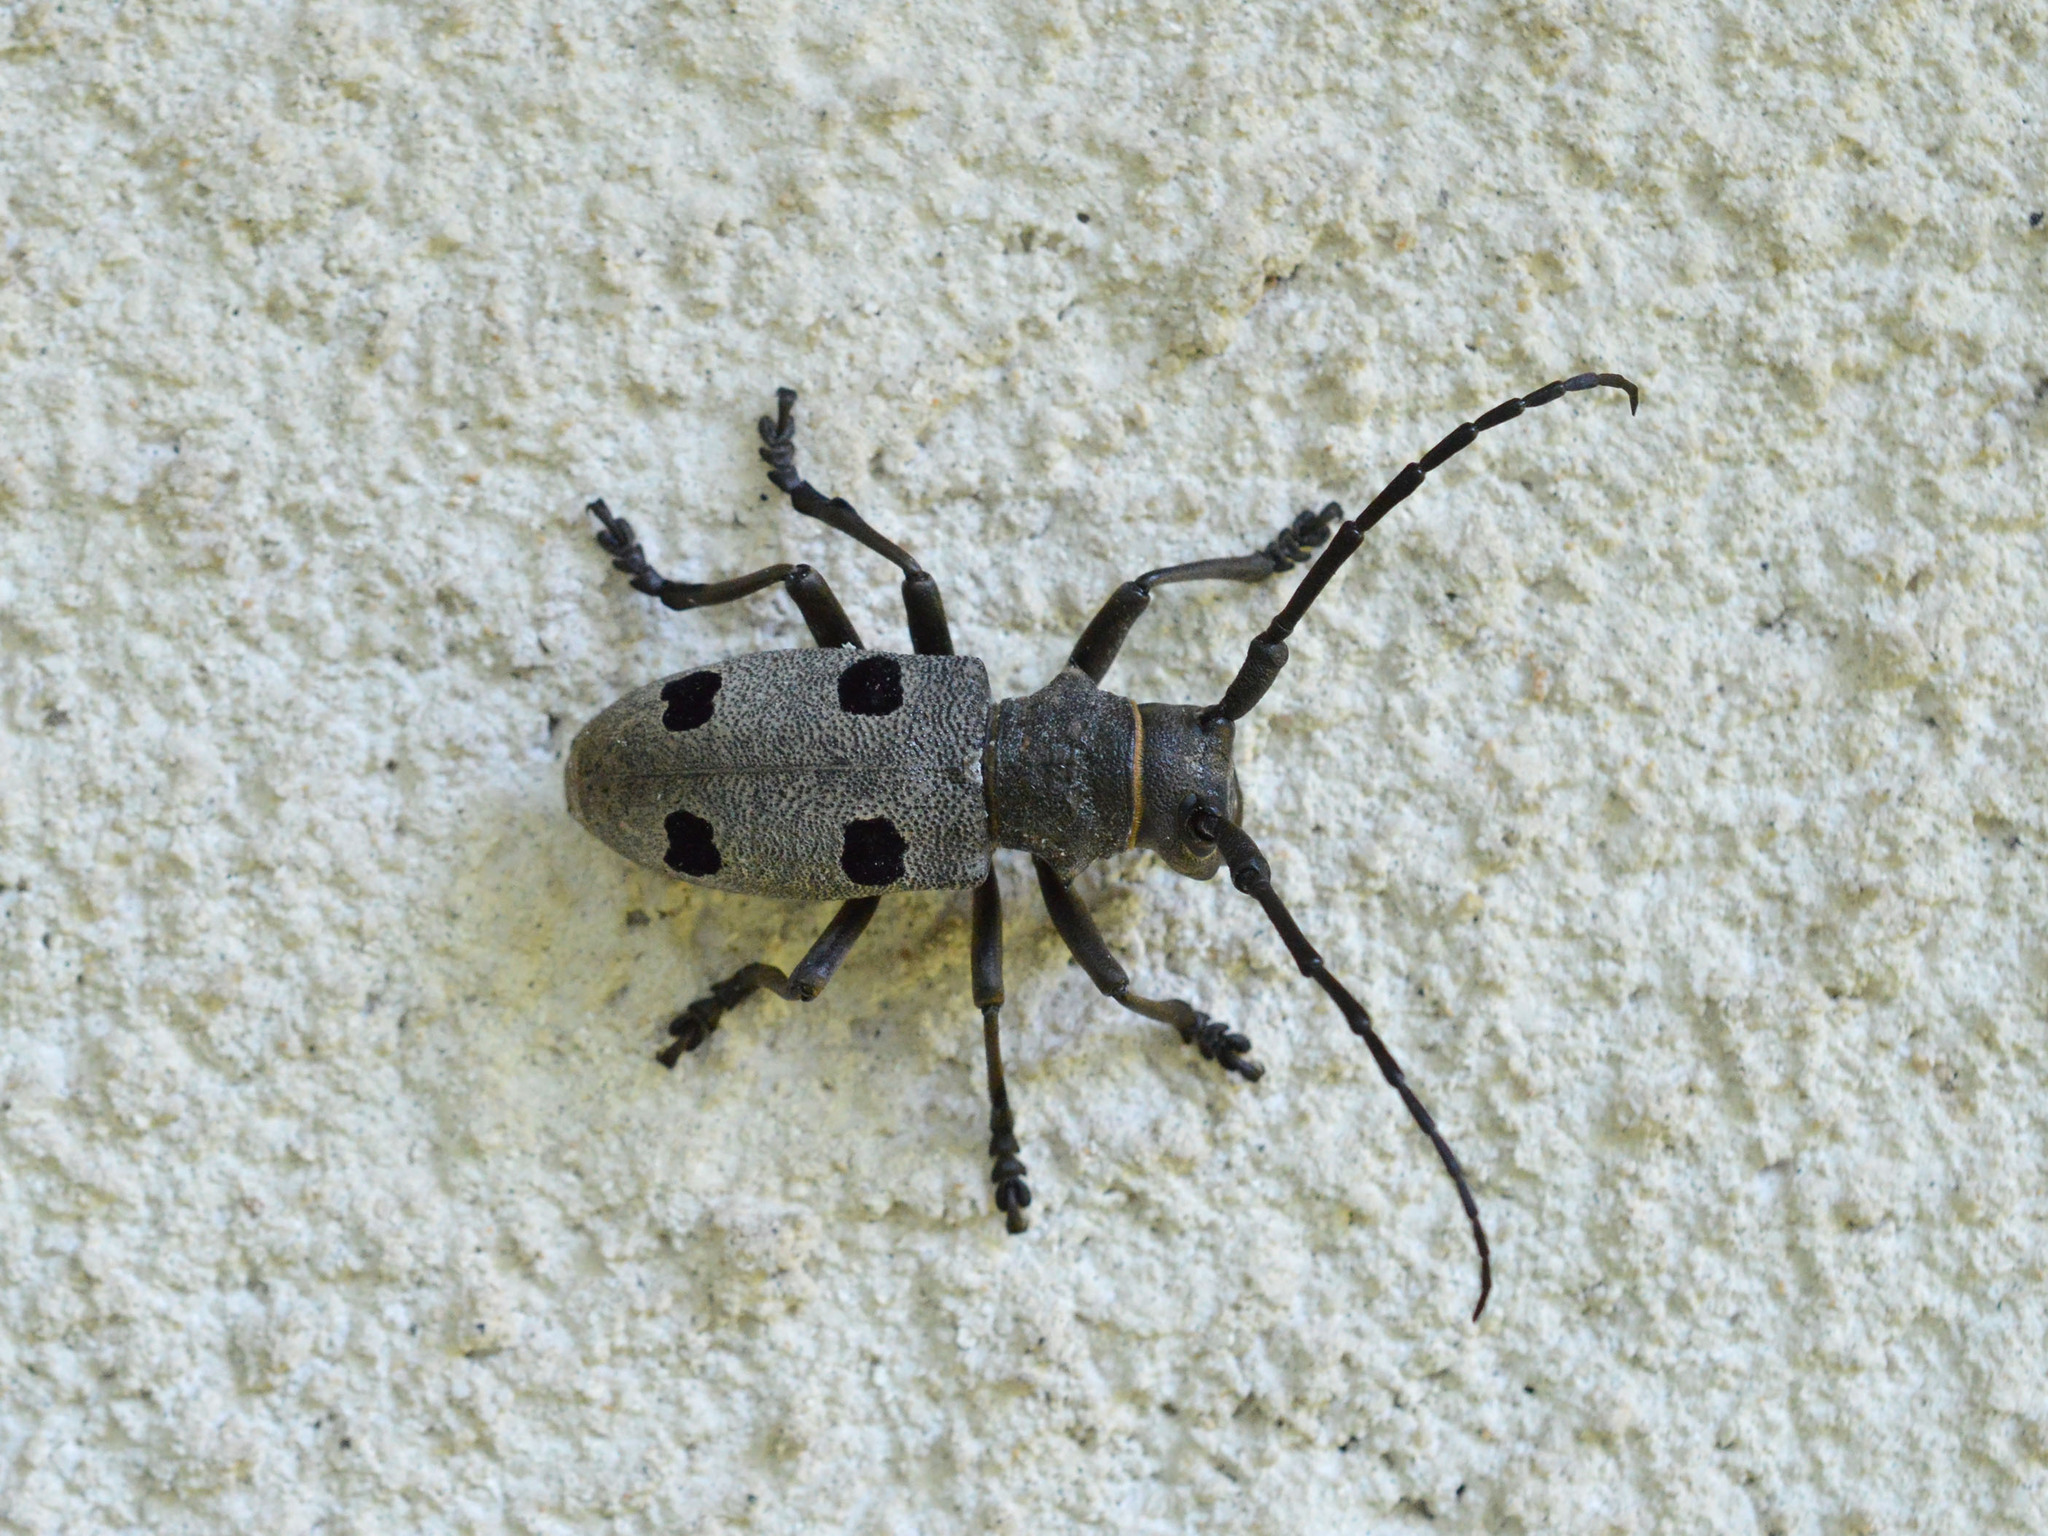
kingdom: Animalia
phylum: Arthropoda
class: Insecta
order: Coleoptera
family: Cerambycidae
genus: Morimus
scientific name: Morimus funereus
